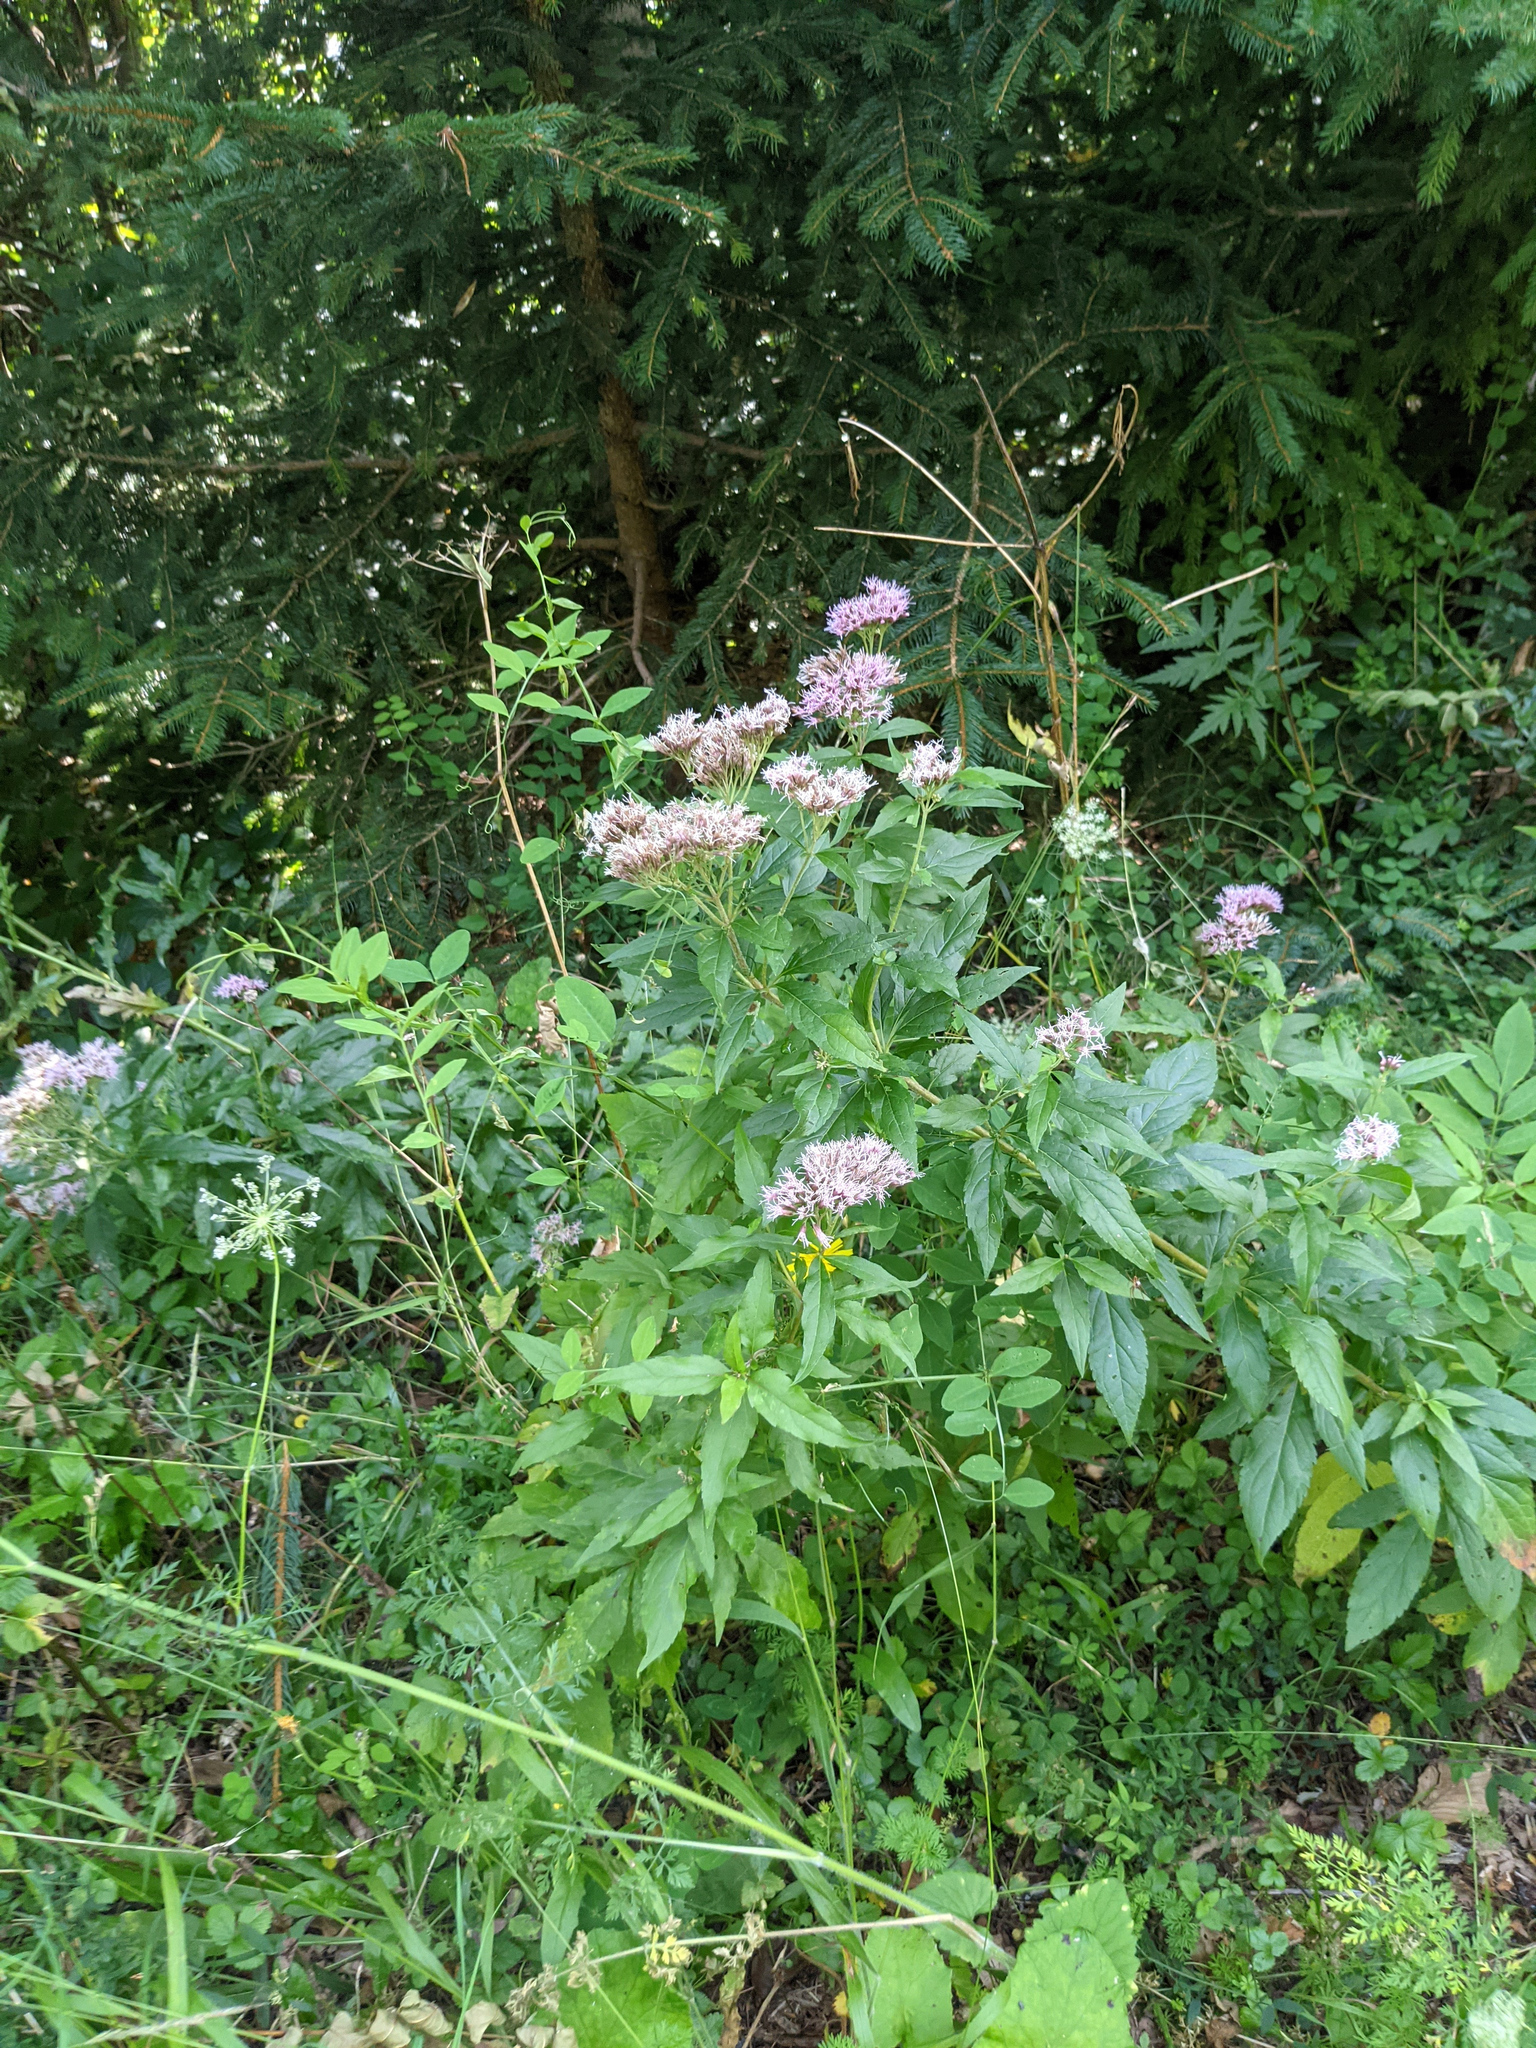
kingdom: Plantae
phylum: Tracheophyta
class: Magnoliopsida
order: Asterales
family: Asteraceae
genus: Eupatorium
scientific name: Eupatorium cannabinum
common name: Hemp-agrimony
